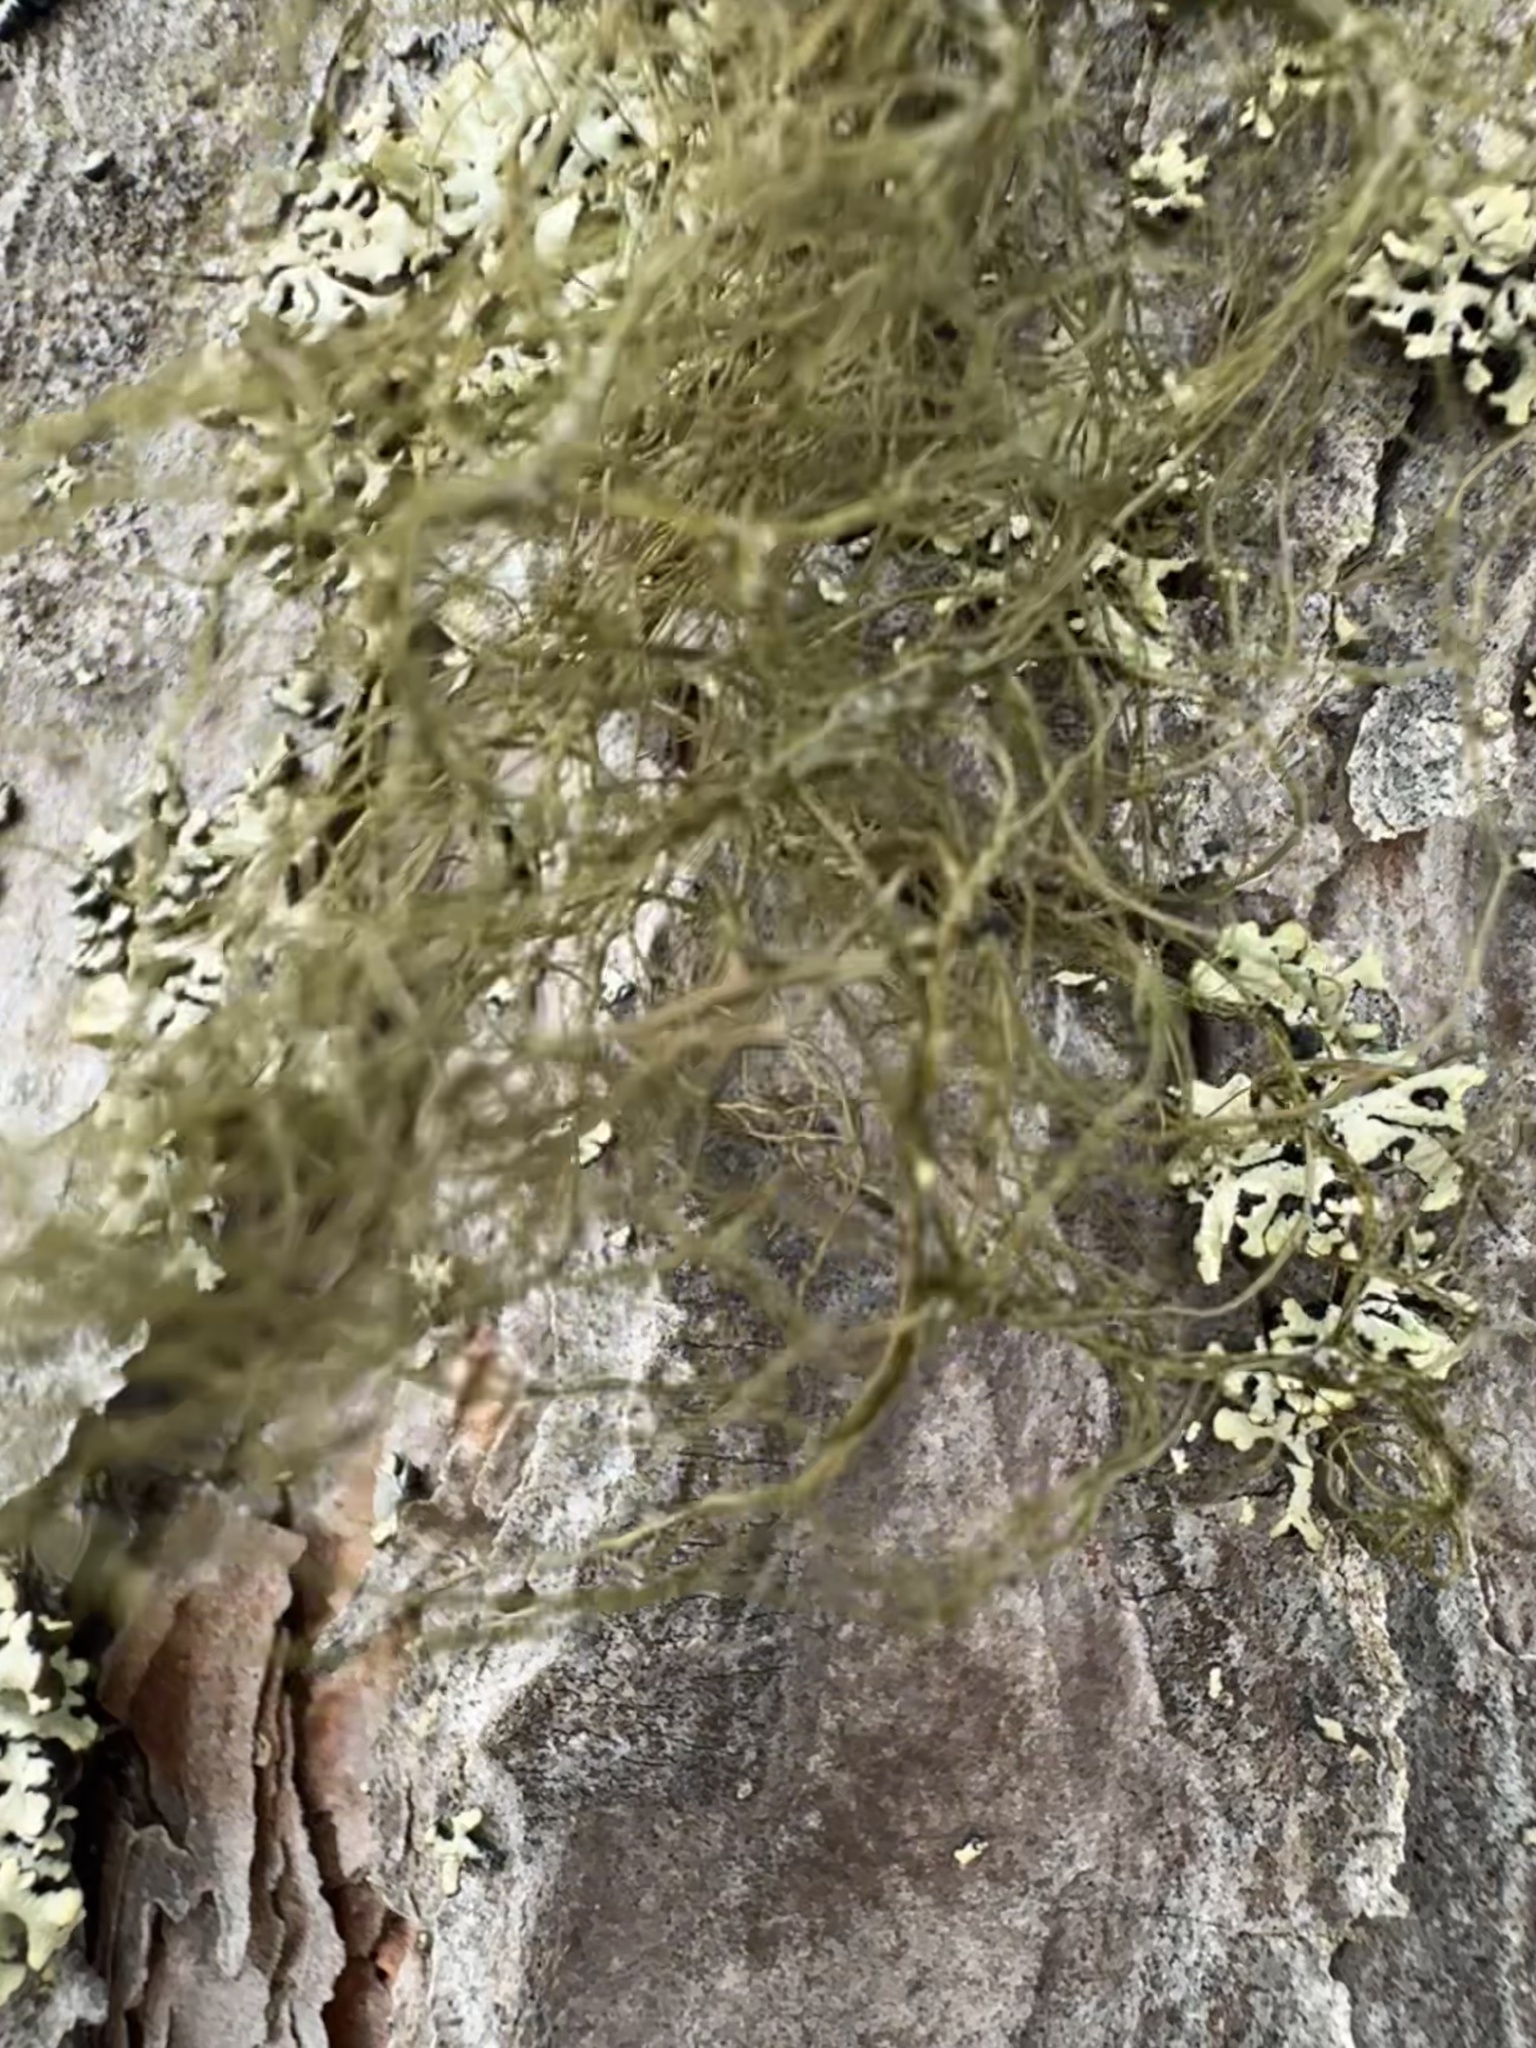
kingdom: Fungi
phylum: Ascomycota
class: Lecanoromycetes
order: Lecanorales
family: Parmeliaceae
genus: Bryoria
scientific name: Bryoria fuscescens
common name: Pale-footed horsehair lichen
